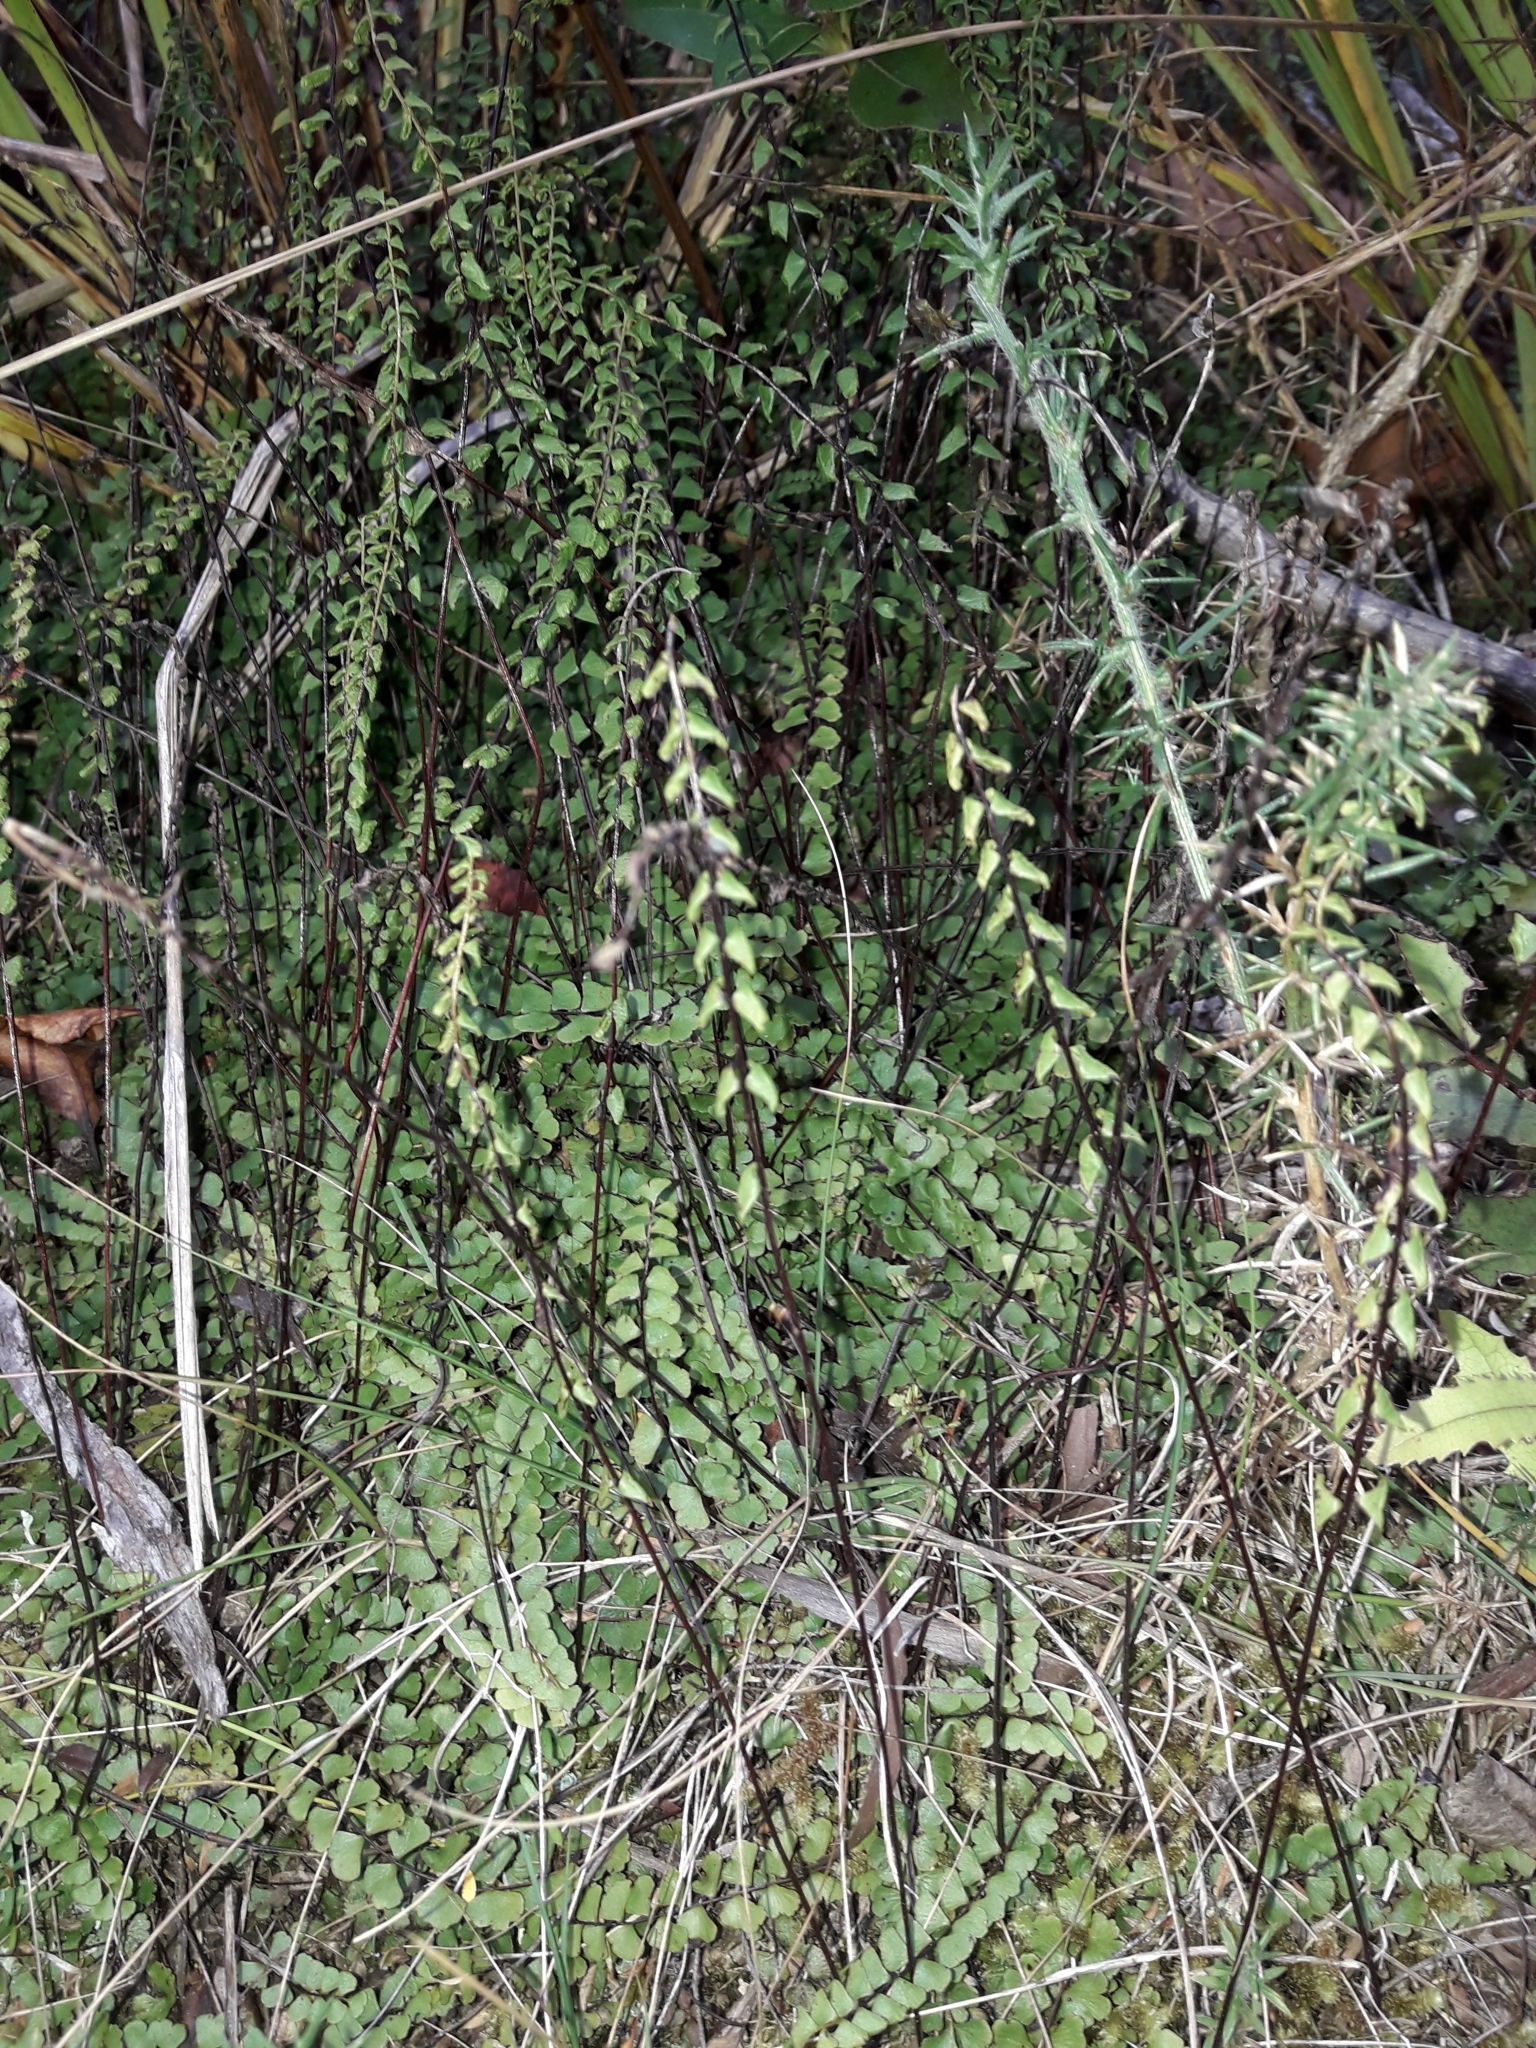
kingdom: Plantae
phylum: Tracheophyta
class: Polypodiopsida
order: Polypodiales
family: Lindsaeaceae
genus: Lindsaea
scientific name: Lindsaea linearis
